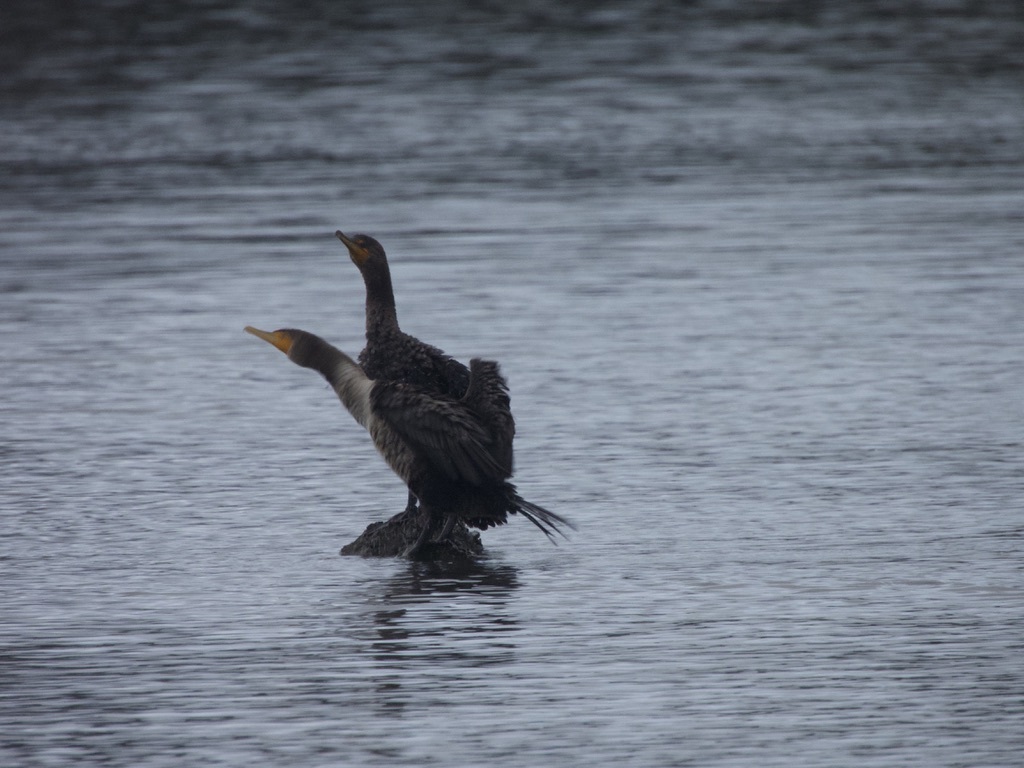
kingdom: Animalia
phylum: Chordata
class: Aves
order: Suliformes
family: Phalacrocoracidae
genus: Phalacrocorax
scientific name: Phalacrocorax auritus
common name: Double-crested cormorant
